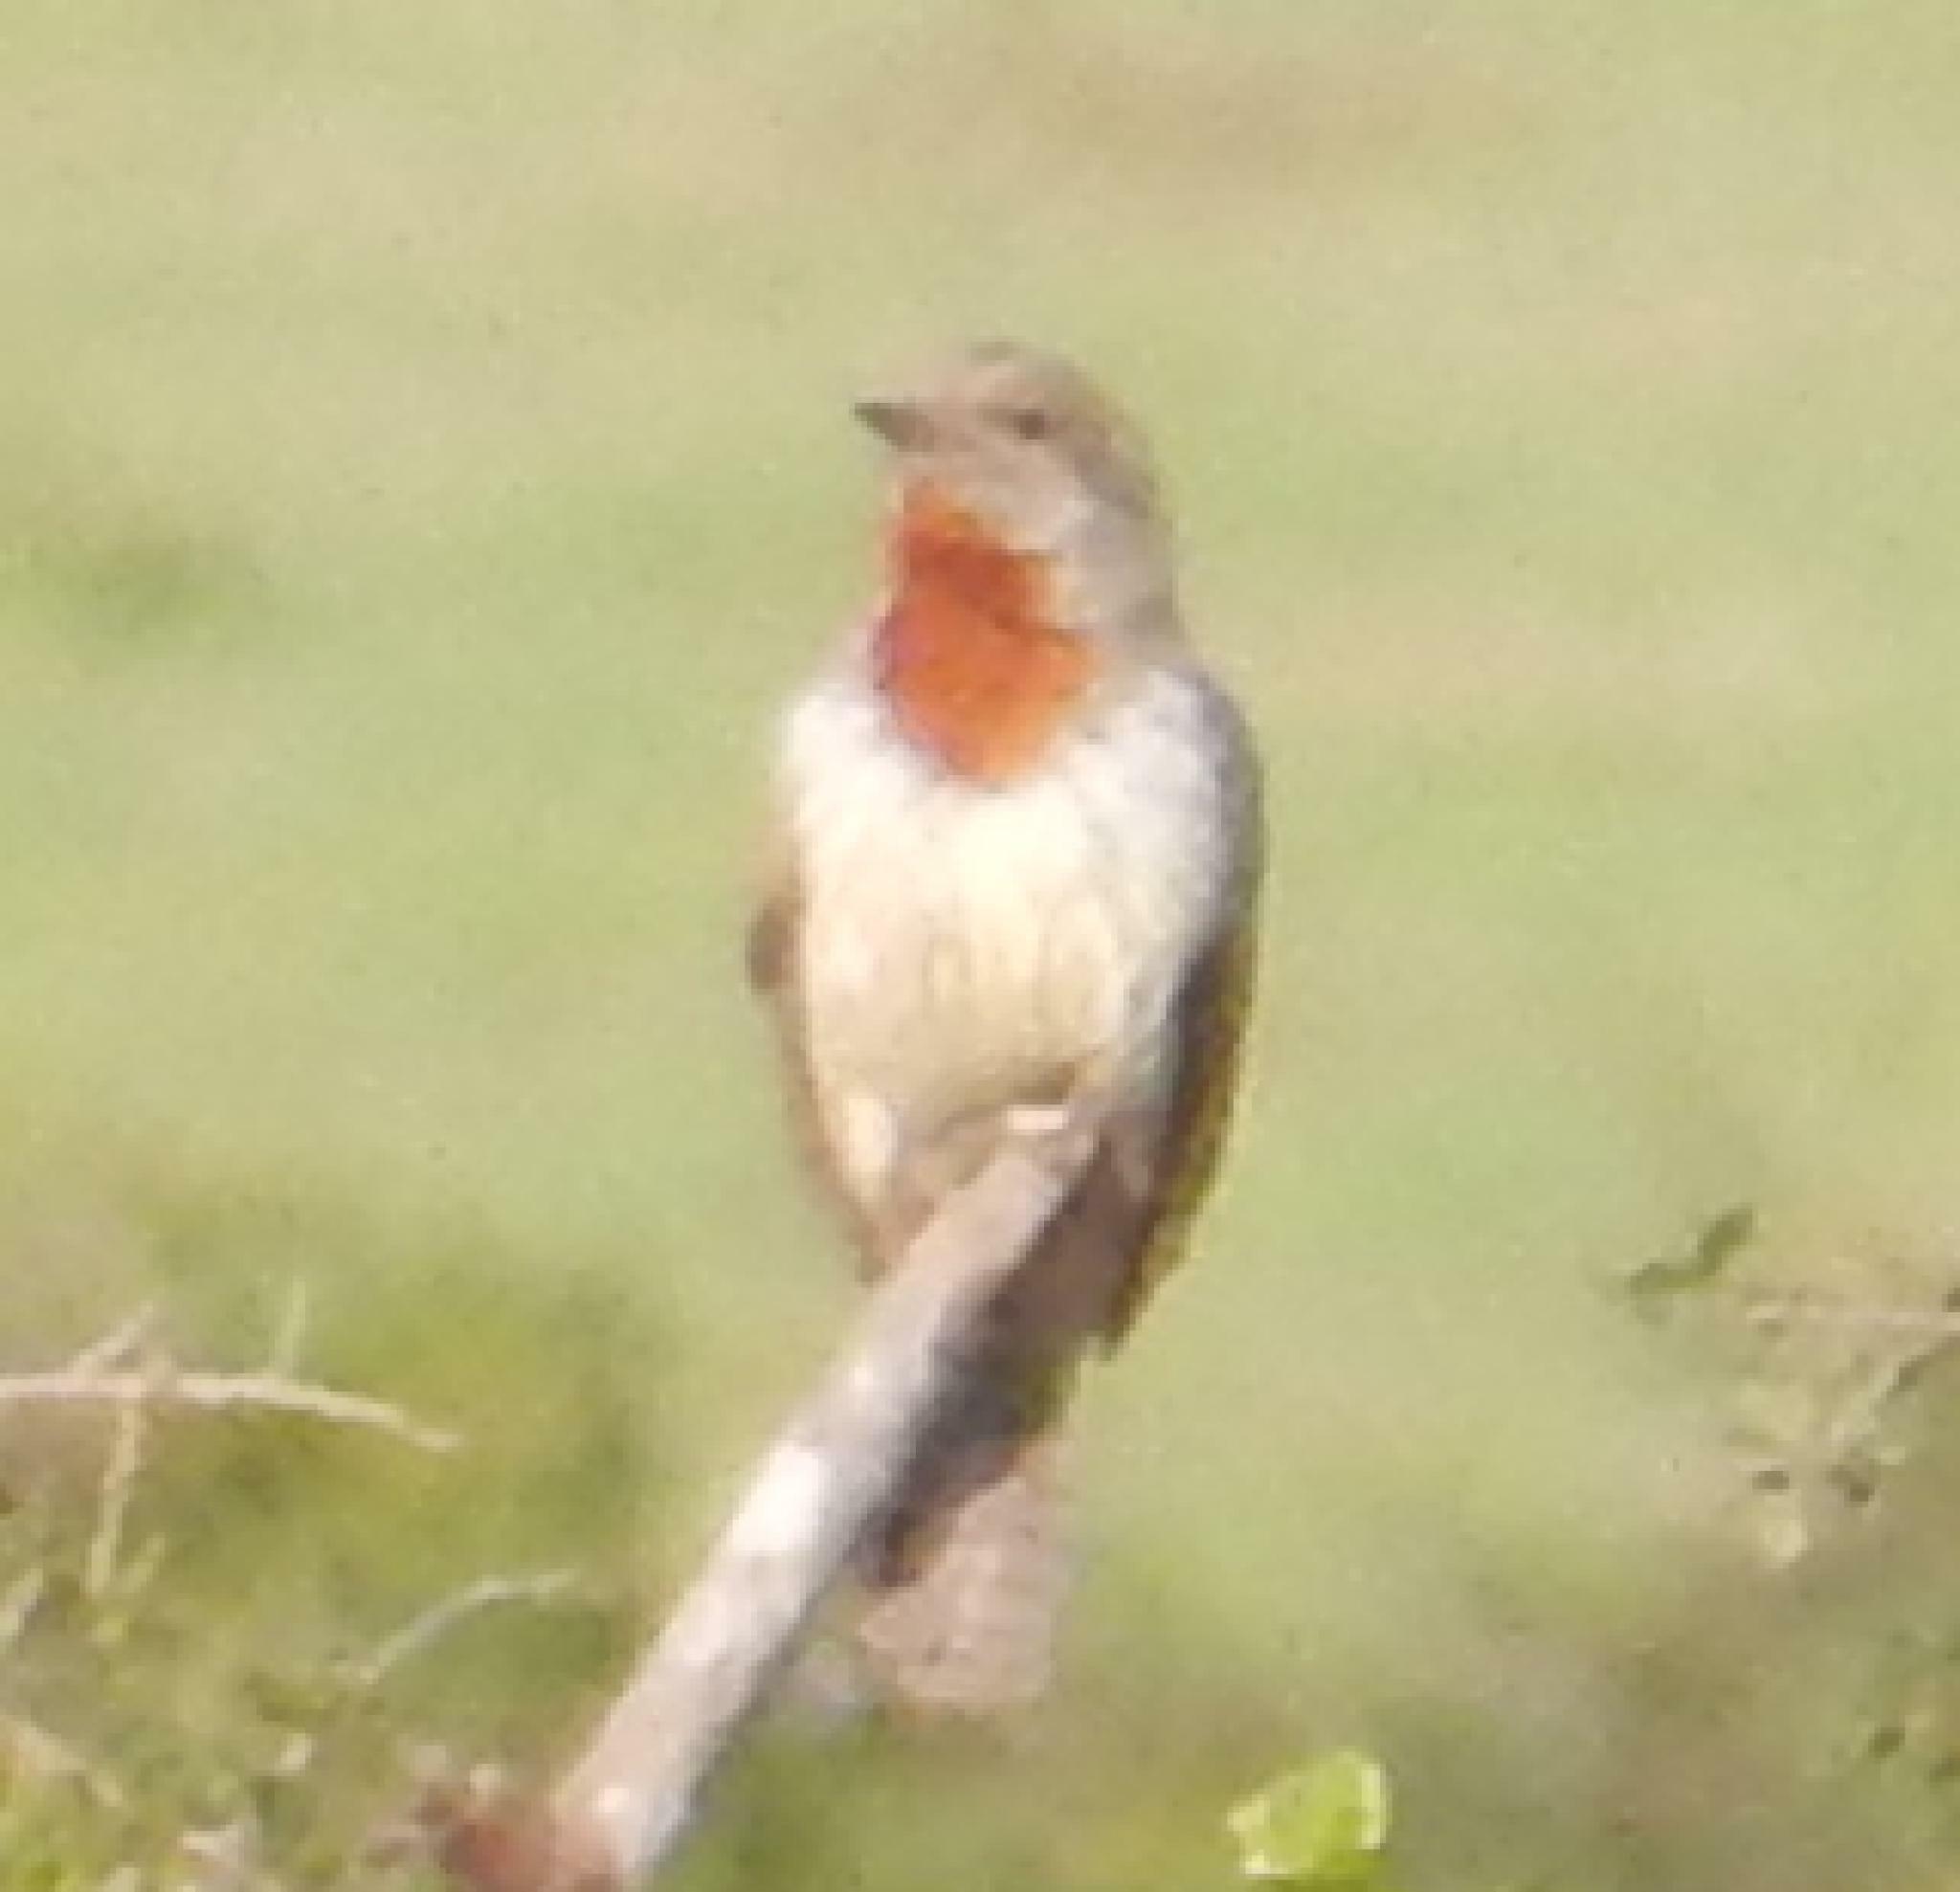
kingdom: Animalia
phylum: Chordata
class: Aves
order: Piciformes
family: Picidae
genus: Jynx
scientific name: Jynx ruficollis
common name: Red-throated wryneck
